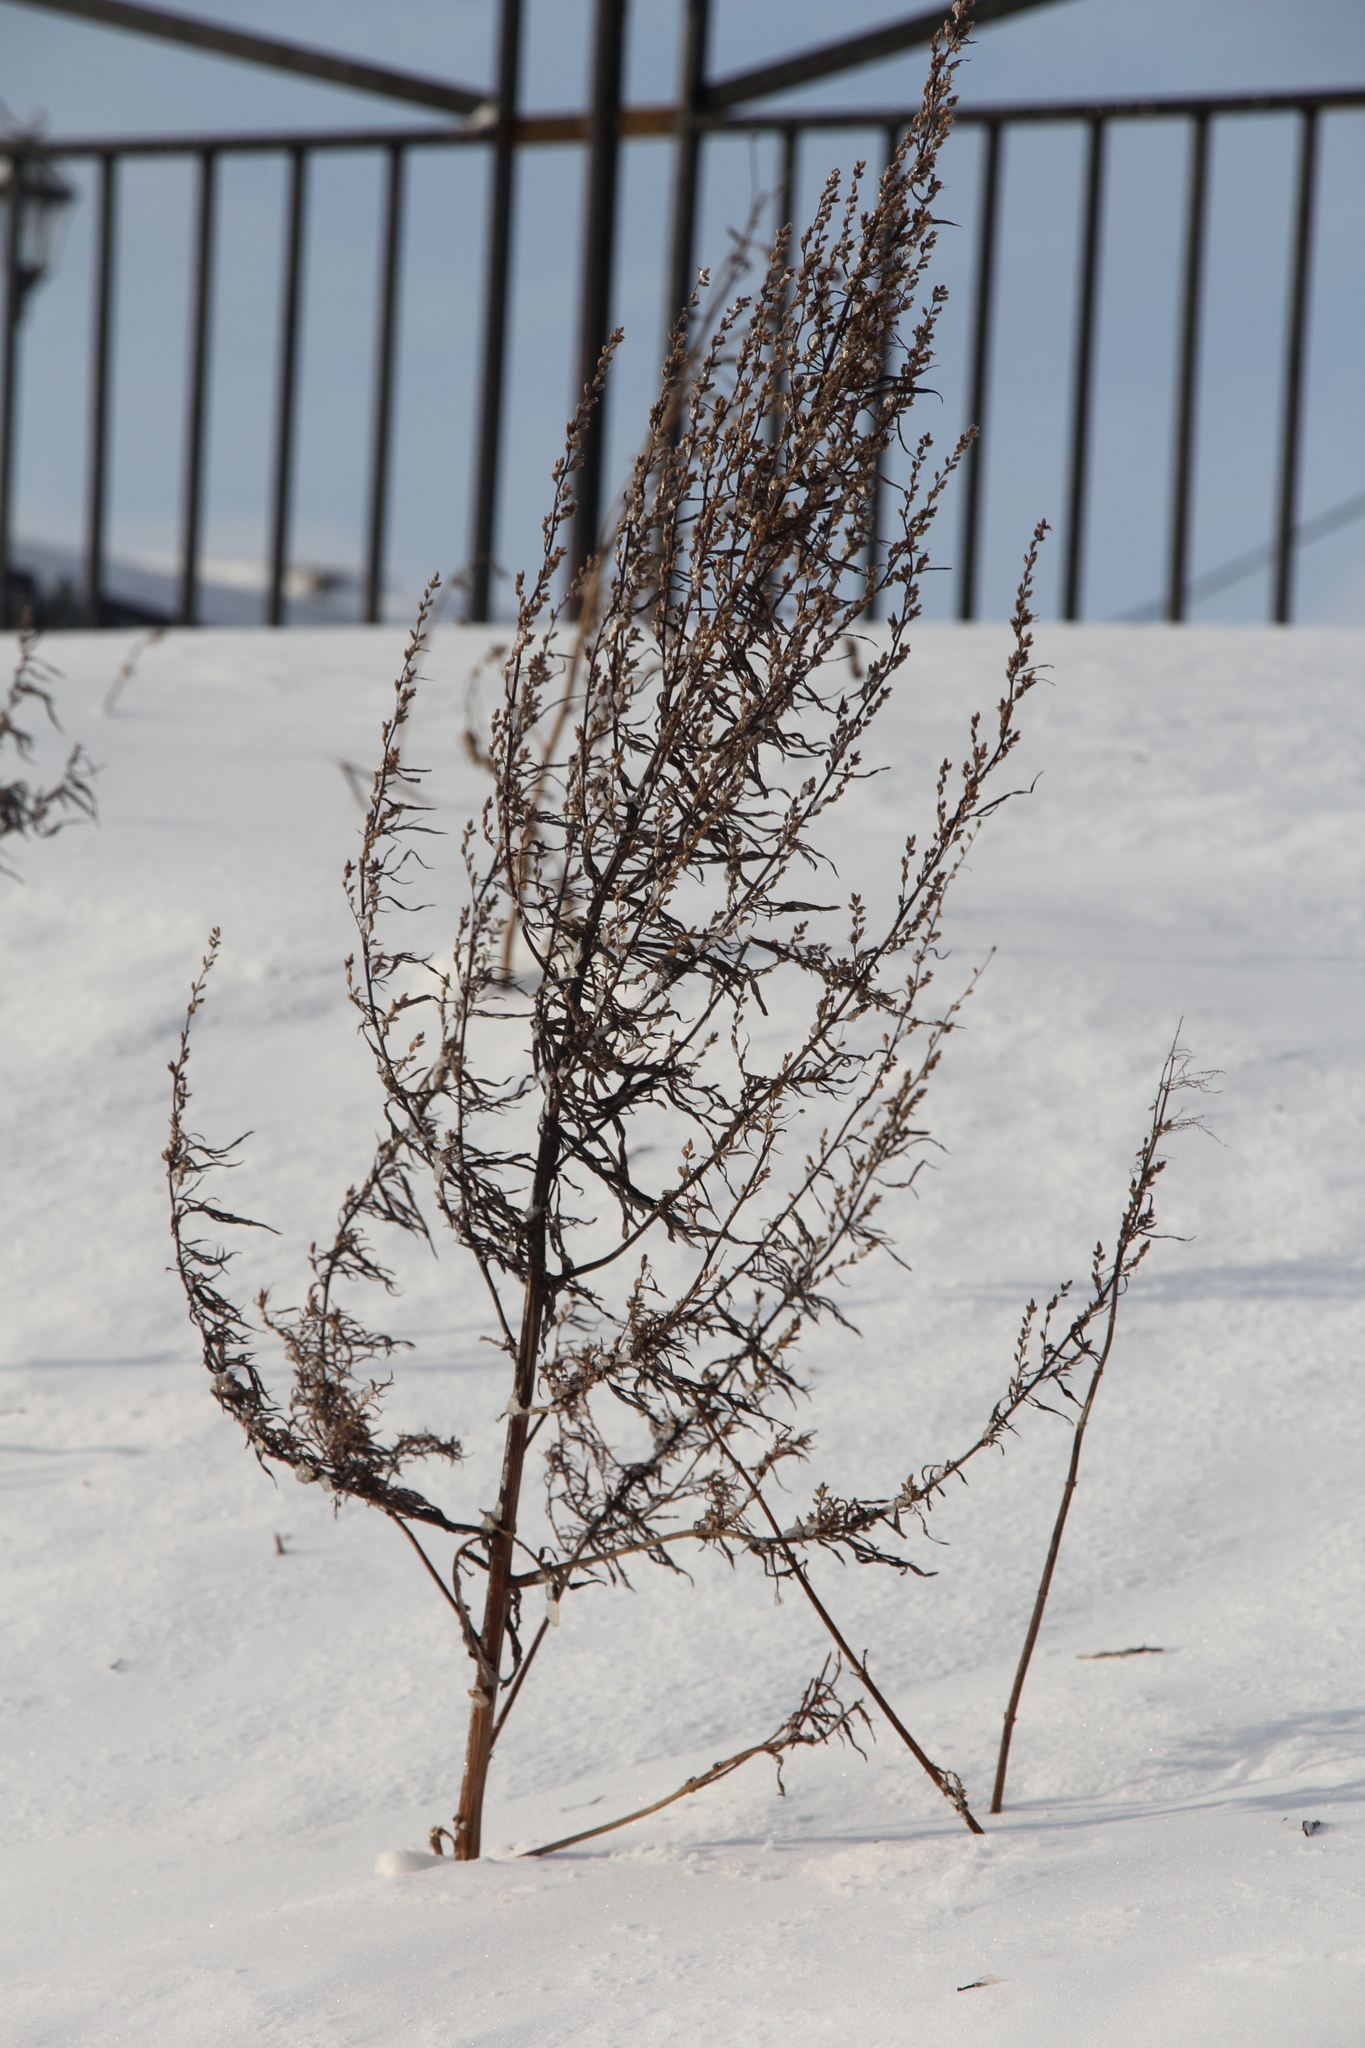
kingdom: Plantae
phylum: Tracheophyta
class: Magnoliopsida
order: Asterales
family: Asteraceae
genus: Artemisia
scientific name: Artemisia vulgaris
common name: Mugwort
